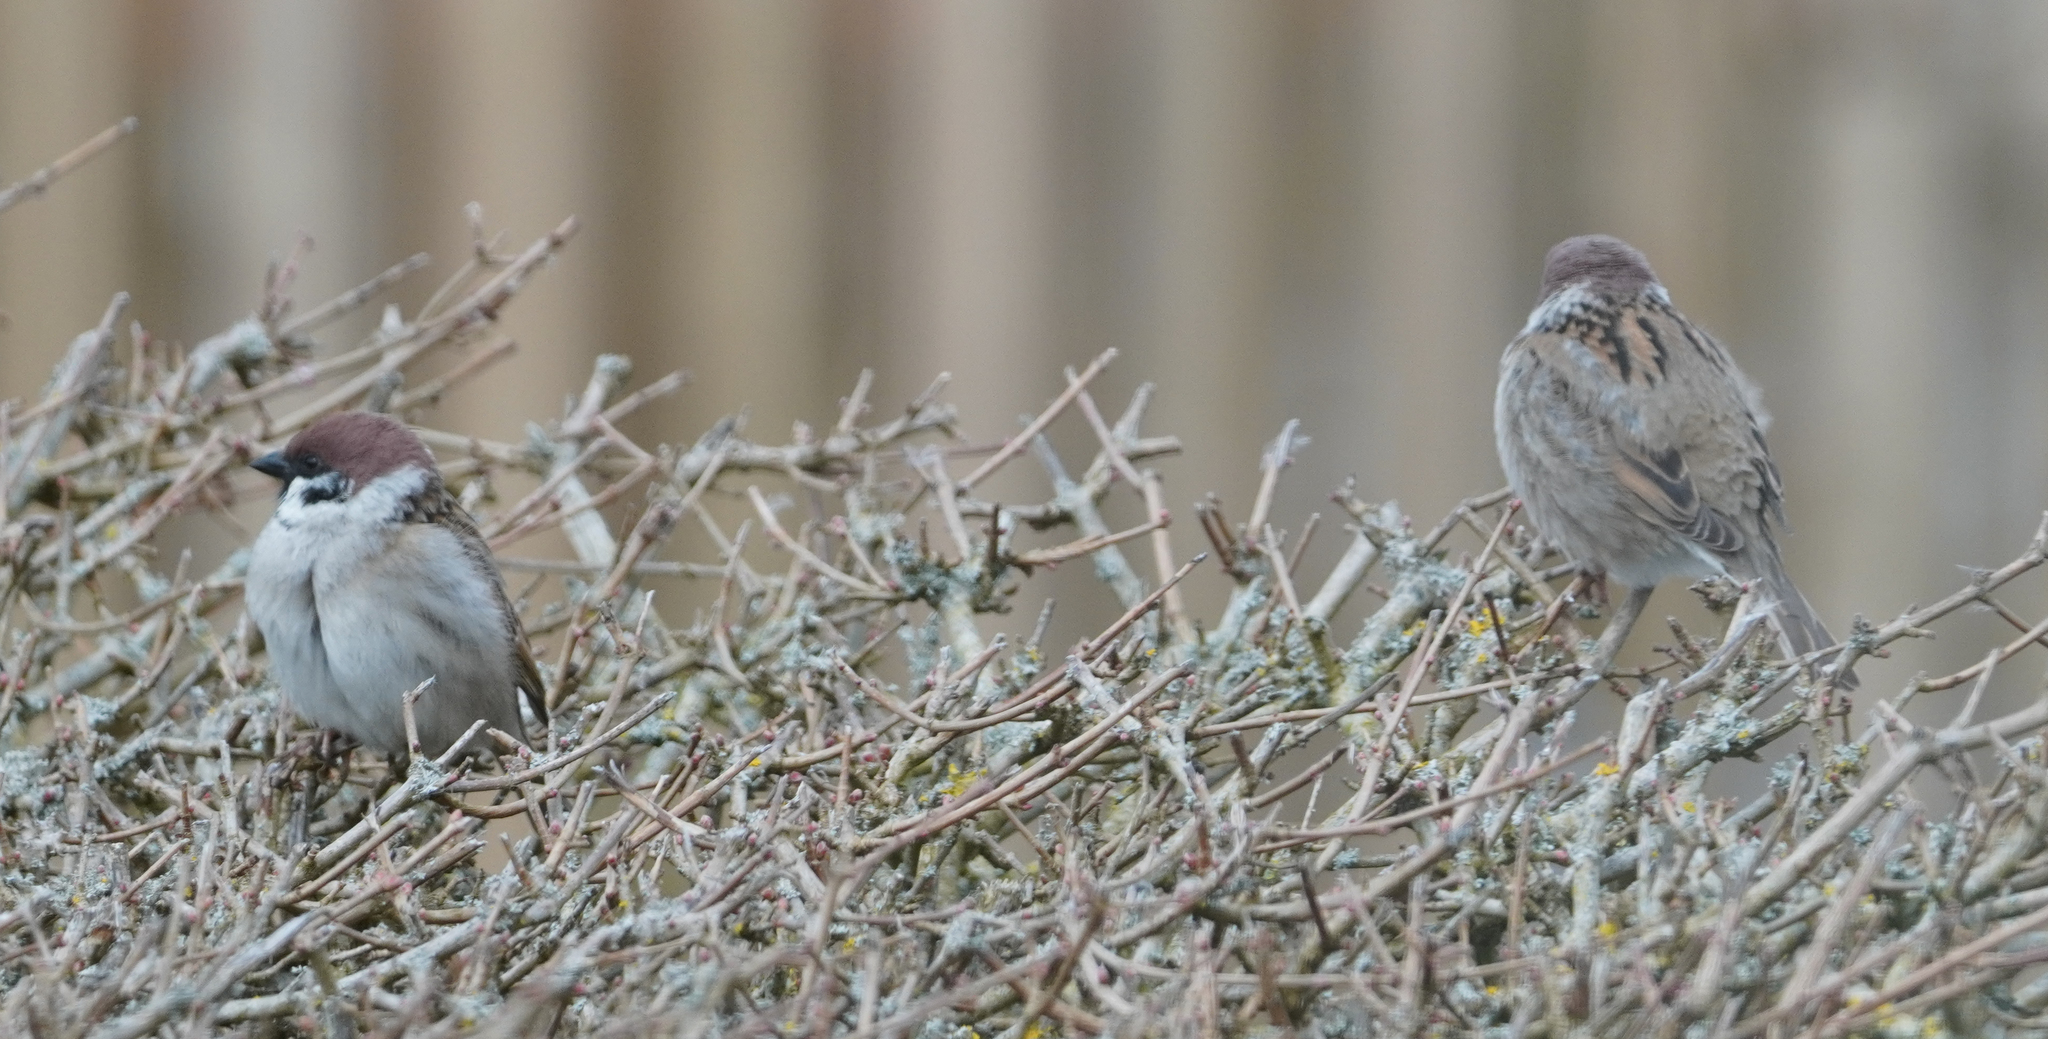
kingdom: Animalia
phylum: Chordata
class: Aves
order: Passeriformes
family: Passeridae
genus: Passer
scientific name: Passer montanus
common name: Eurasian tree sparrow
